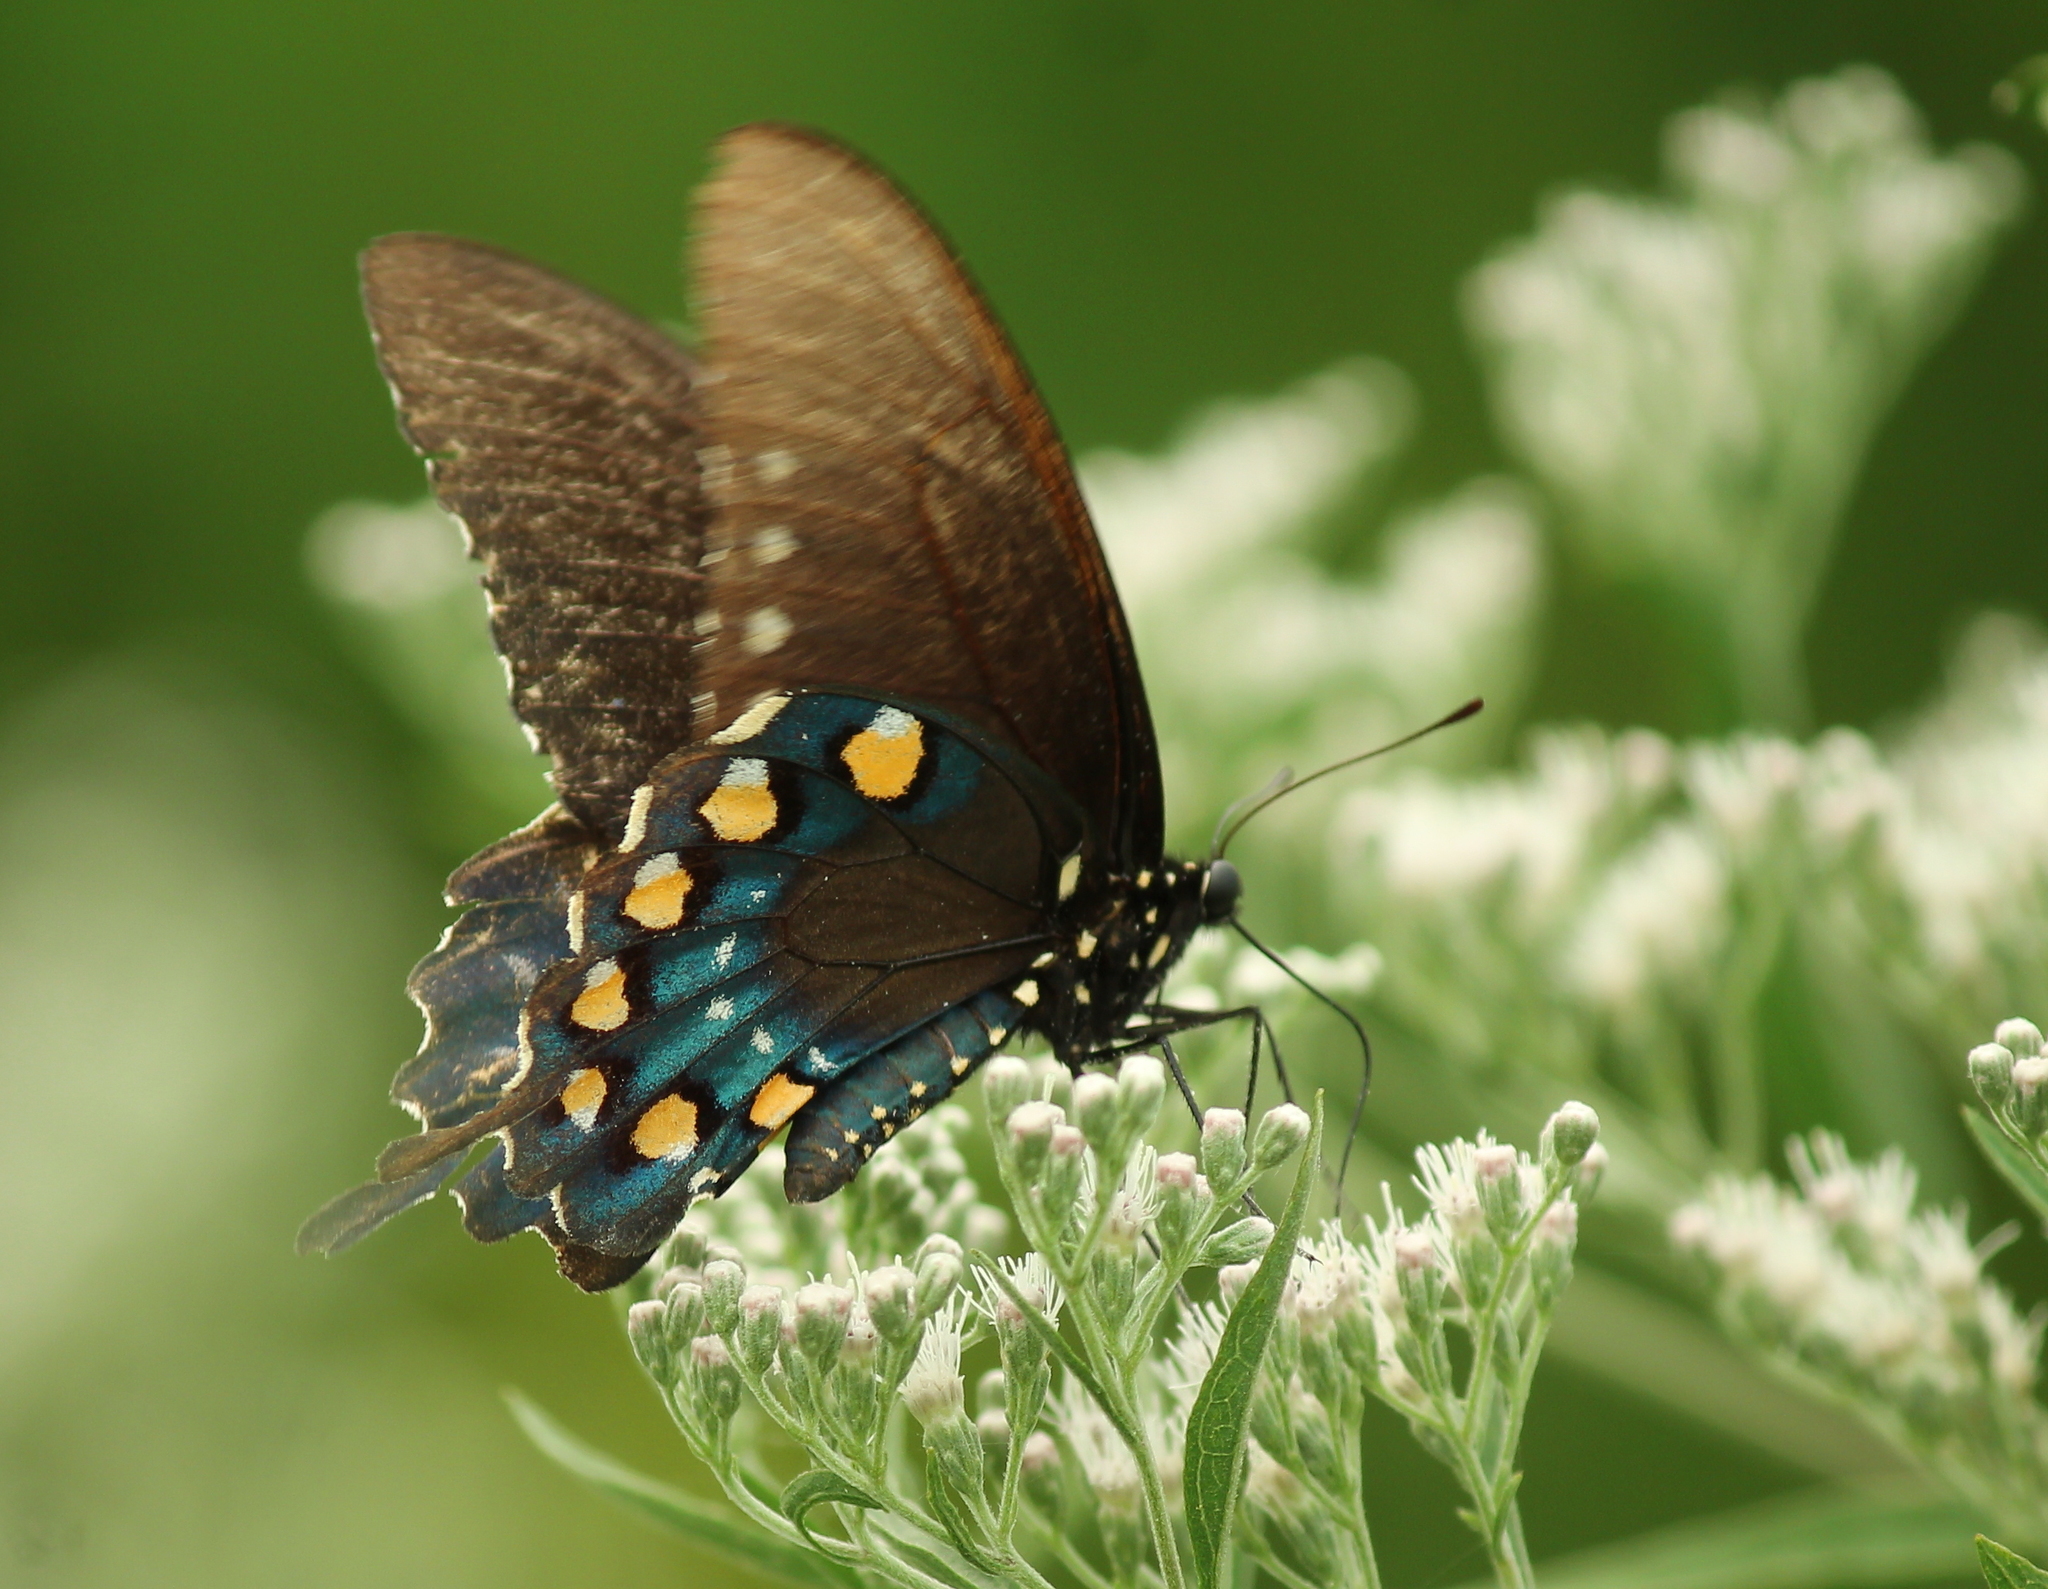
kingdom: Animalia
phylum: Arthropoda
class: Insecta
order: Lepidoptera
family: Papilionidae
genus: Battus
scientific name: Battus philenor
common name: Pipevine swallowtail
